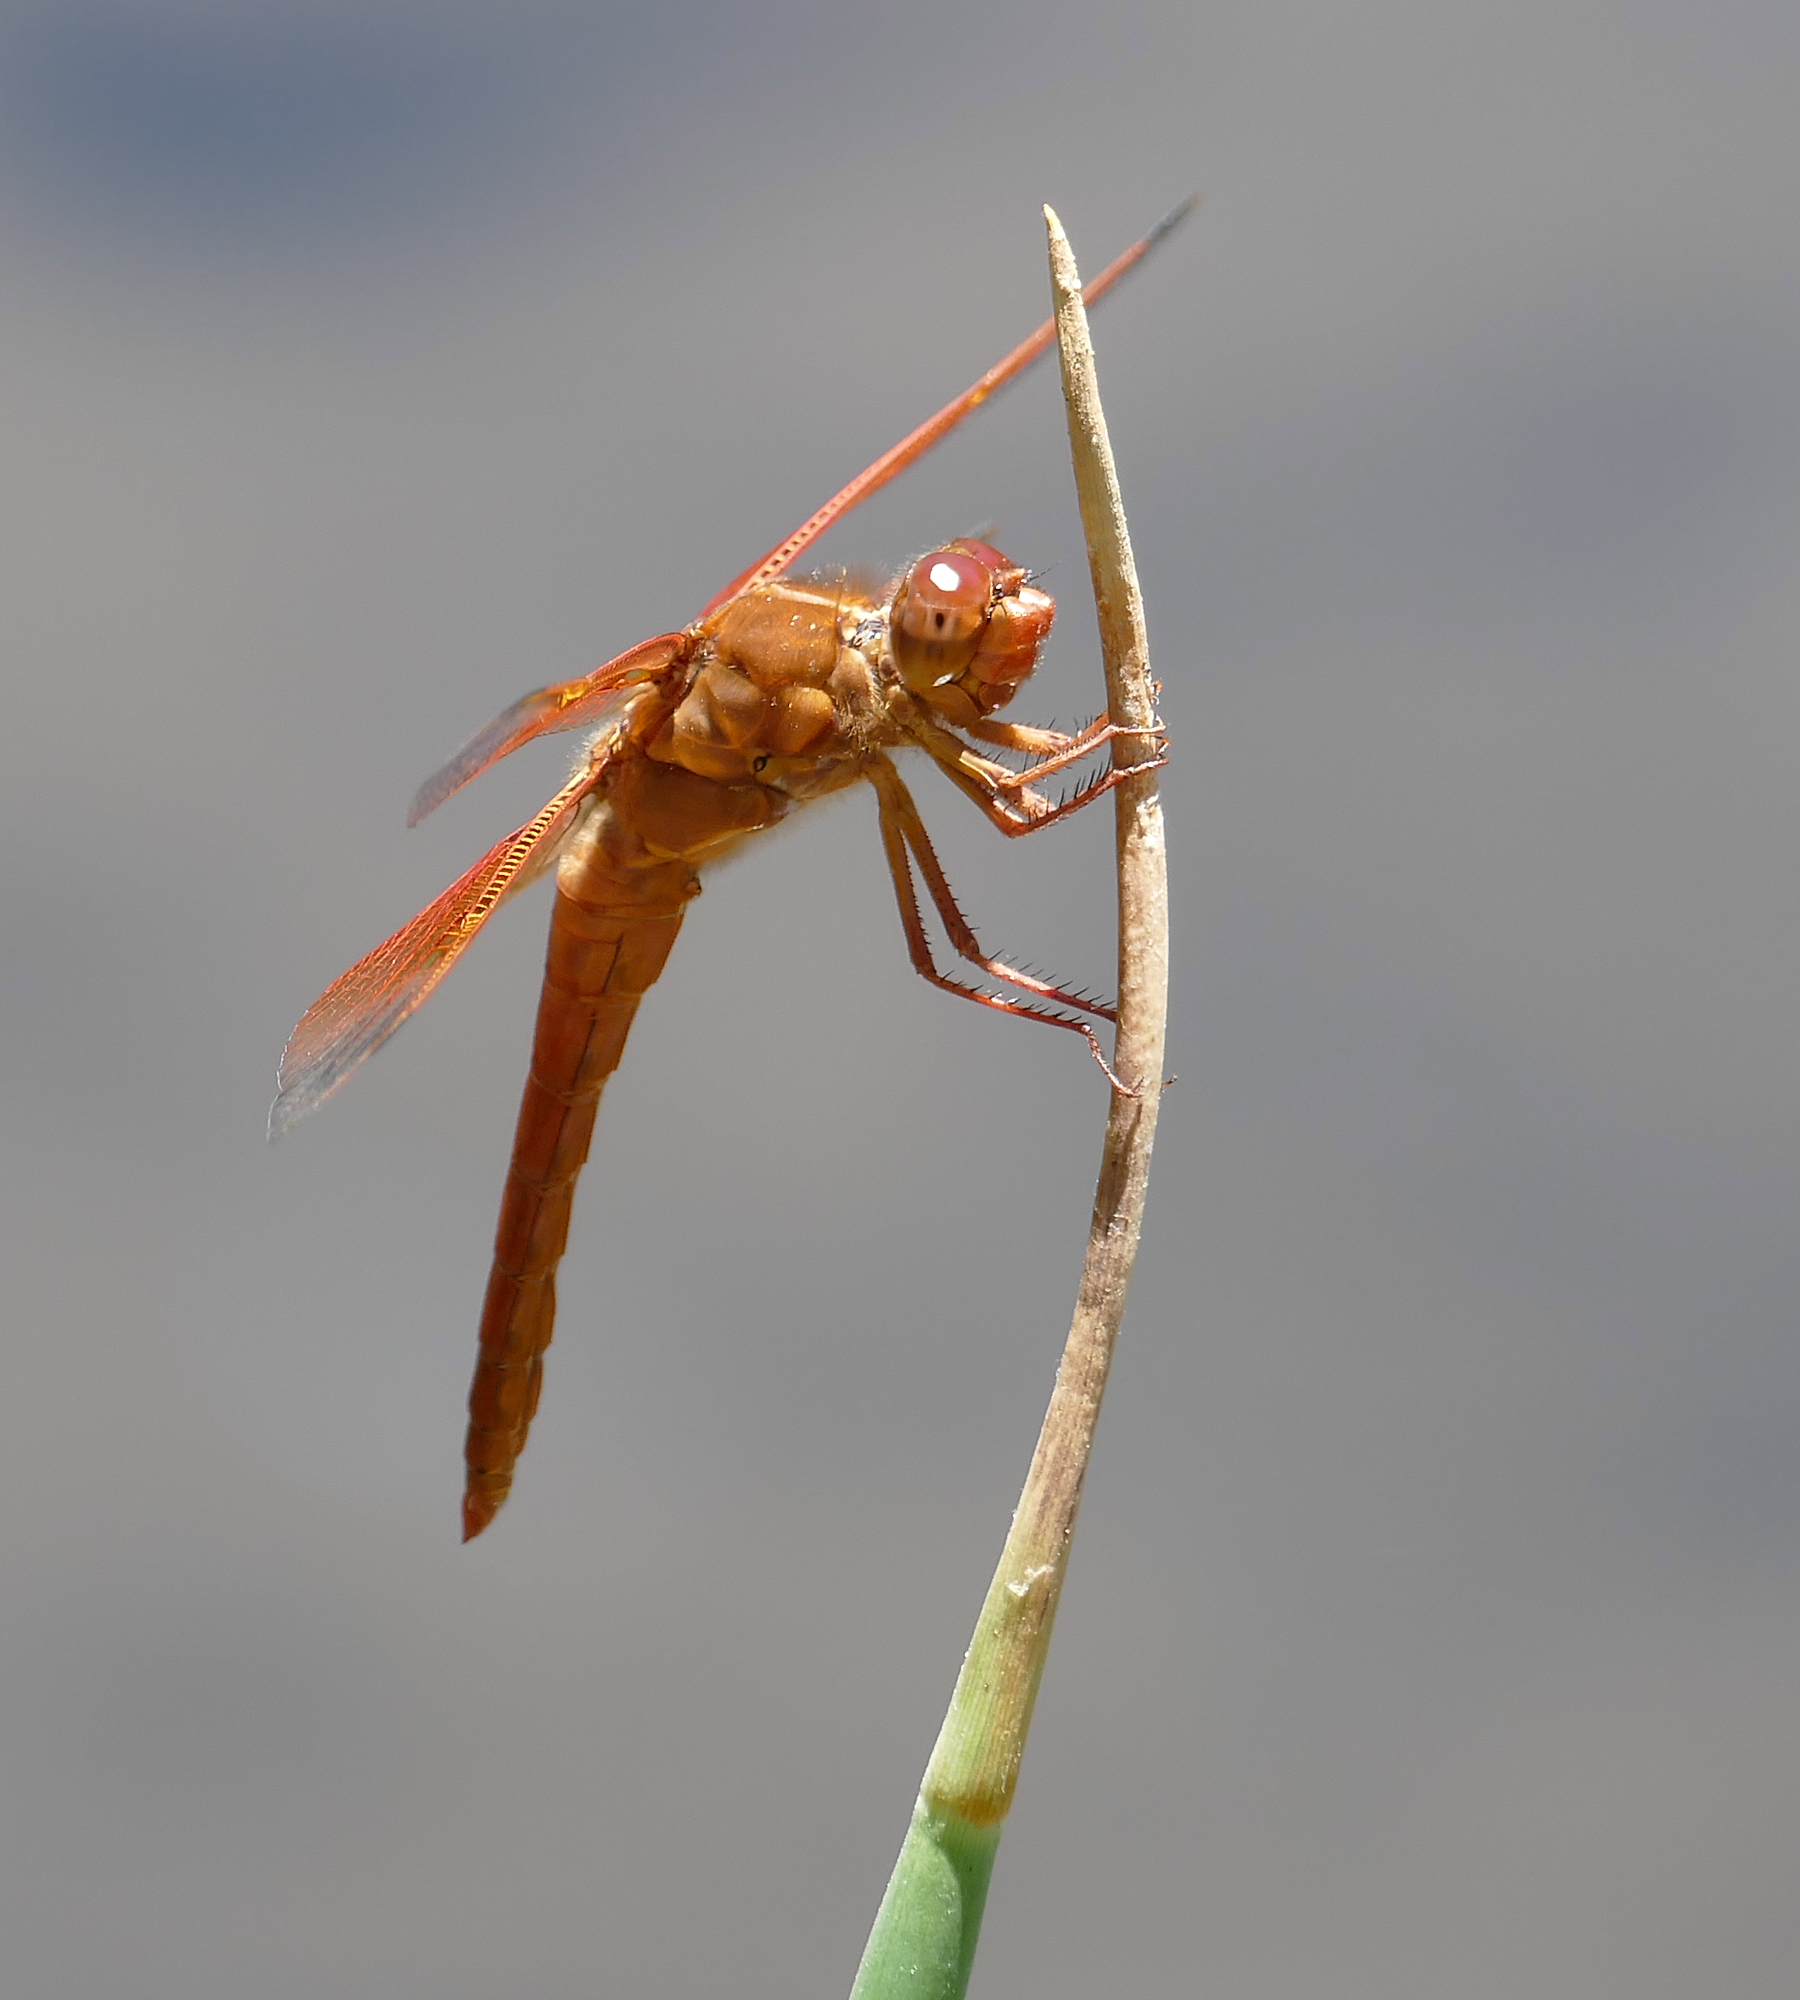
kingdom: Animalia
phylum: Arthropoda
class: Insecta
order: Odonata
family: Libellulidae
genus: Libellula
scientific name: Libellula saturata
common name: Flame skimmer
